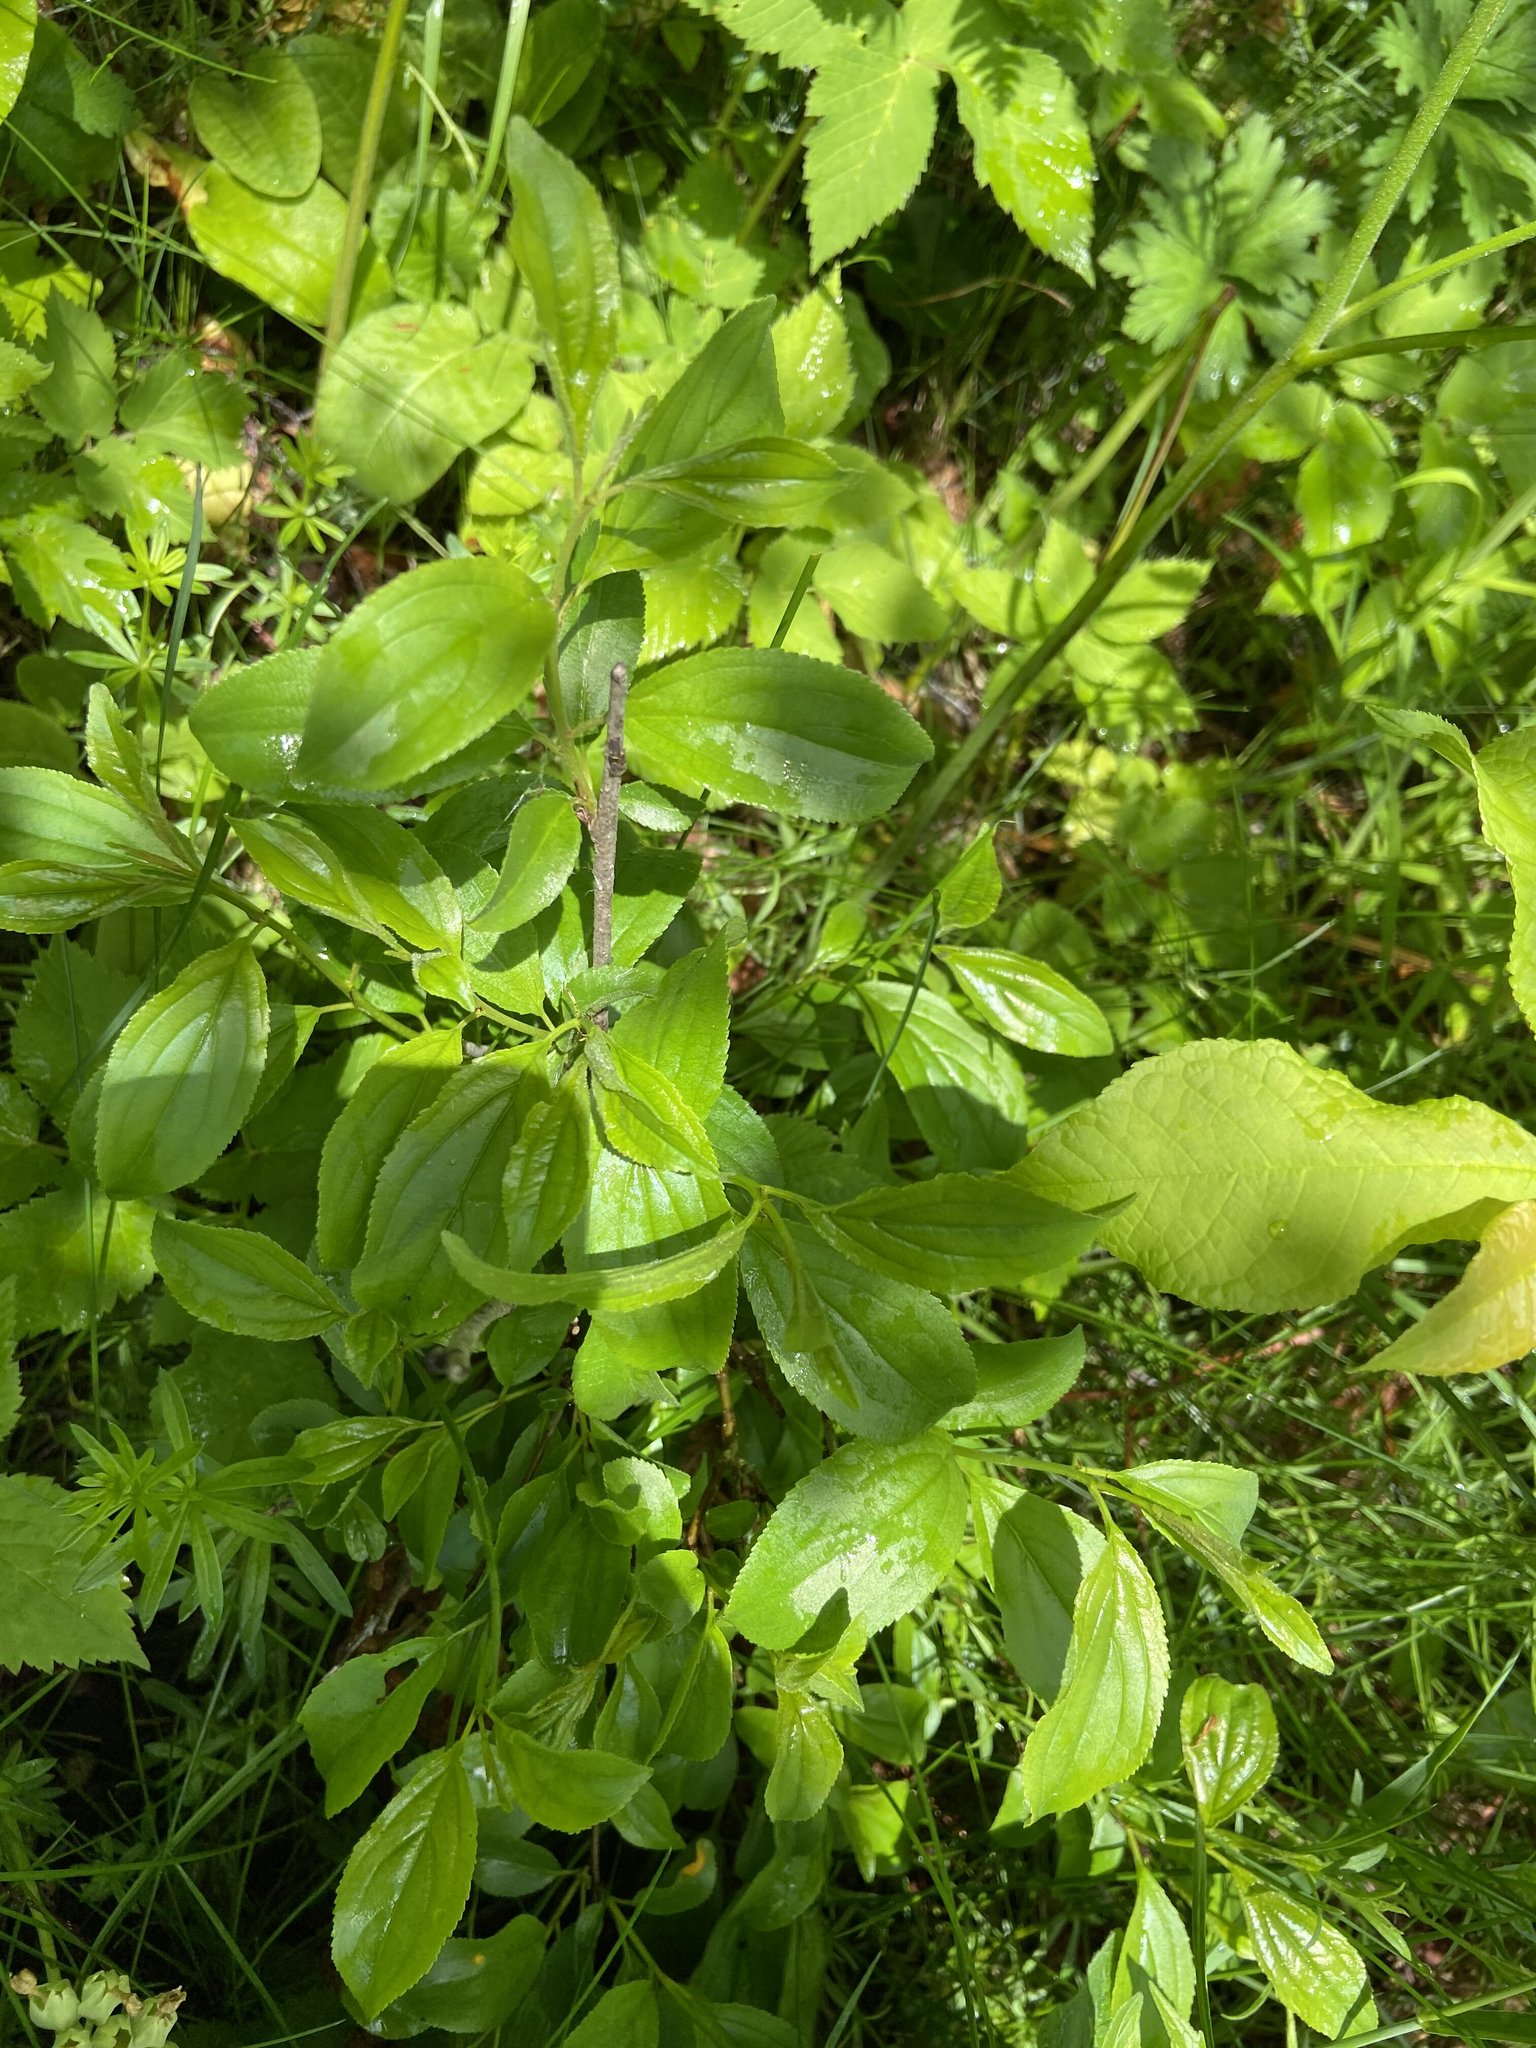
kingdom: Plantae
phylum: Tracheophyta
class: Magnoliopsida
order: Rosales
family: Rhamnaceae
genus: Rhamnus
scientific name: Rhamnus cathartica
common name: Common buckthorn
